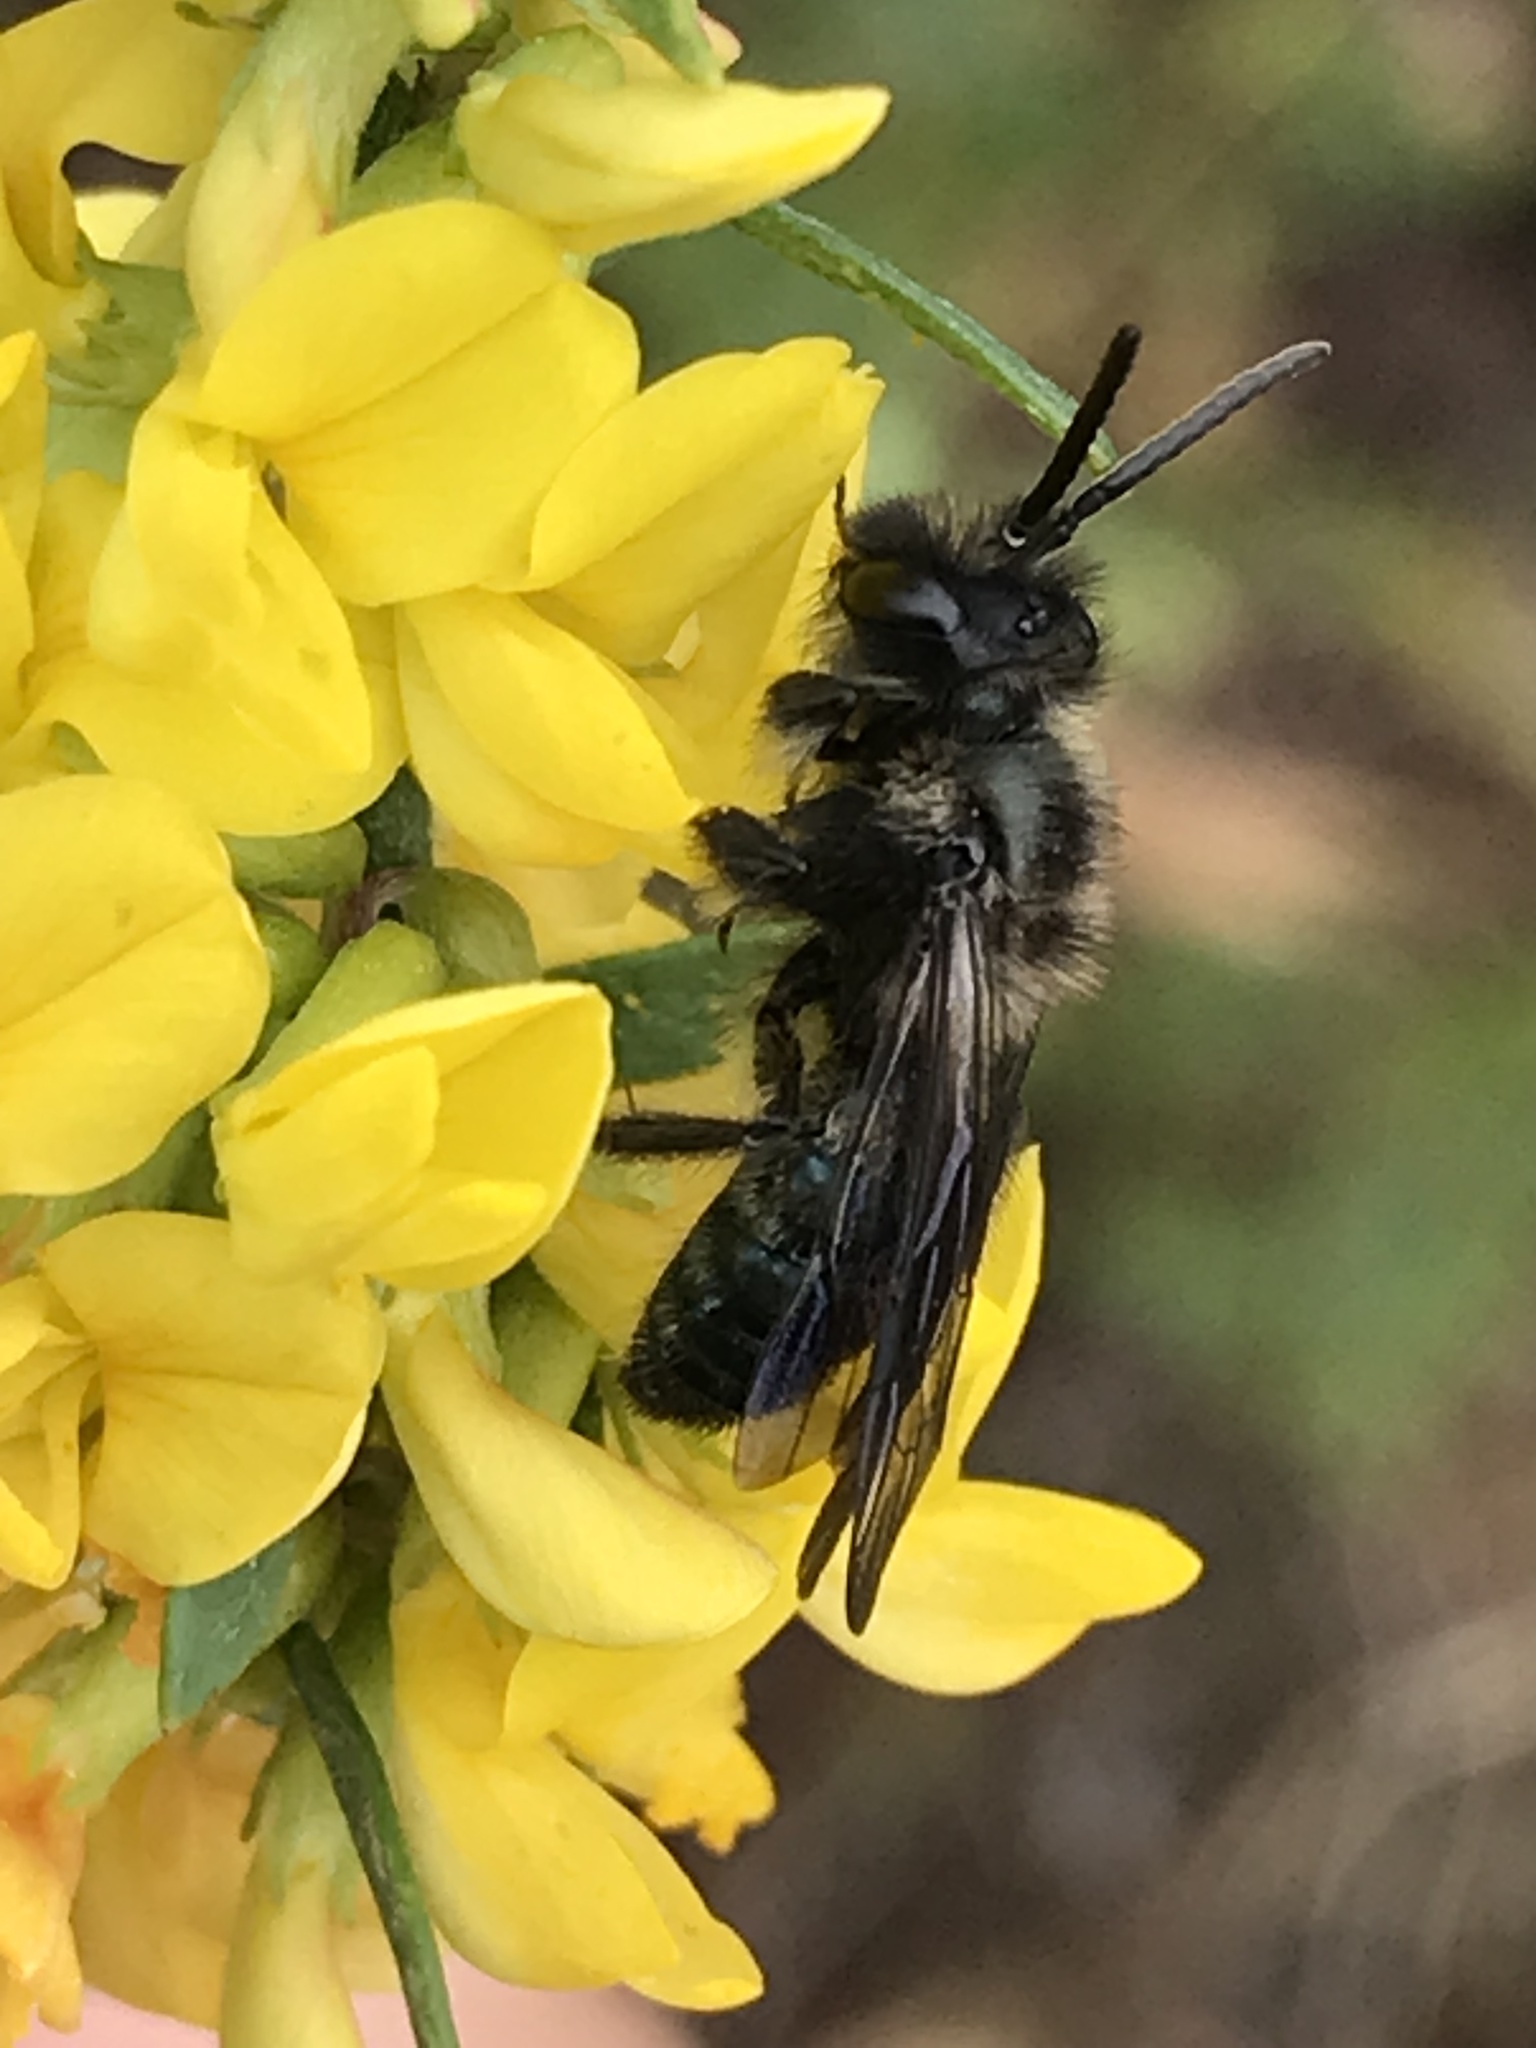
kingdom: Animalia
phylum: Arthropoda
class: Insecta
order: Hymenoptera
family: Andrenidae
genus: Andrena
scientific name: Andrena cerasifolii
